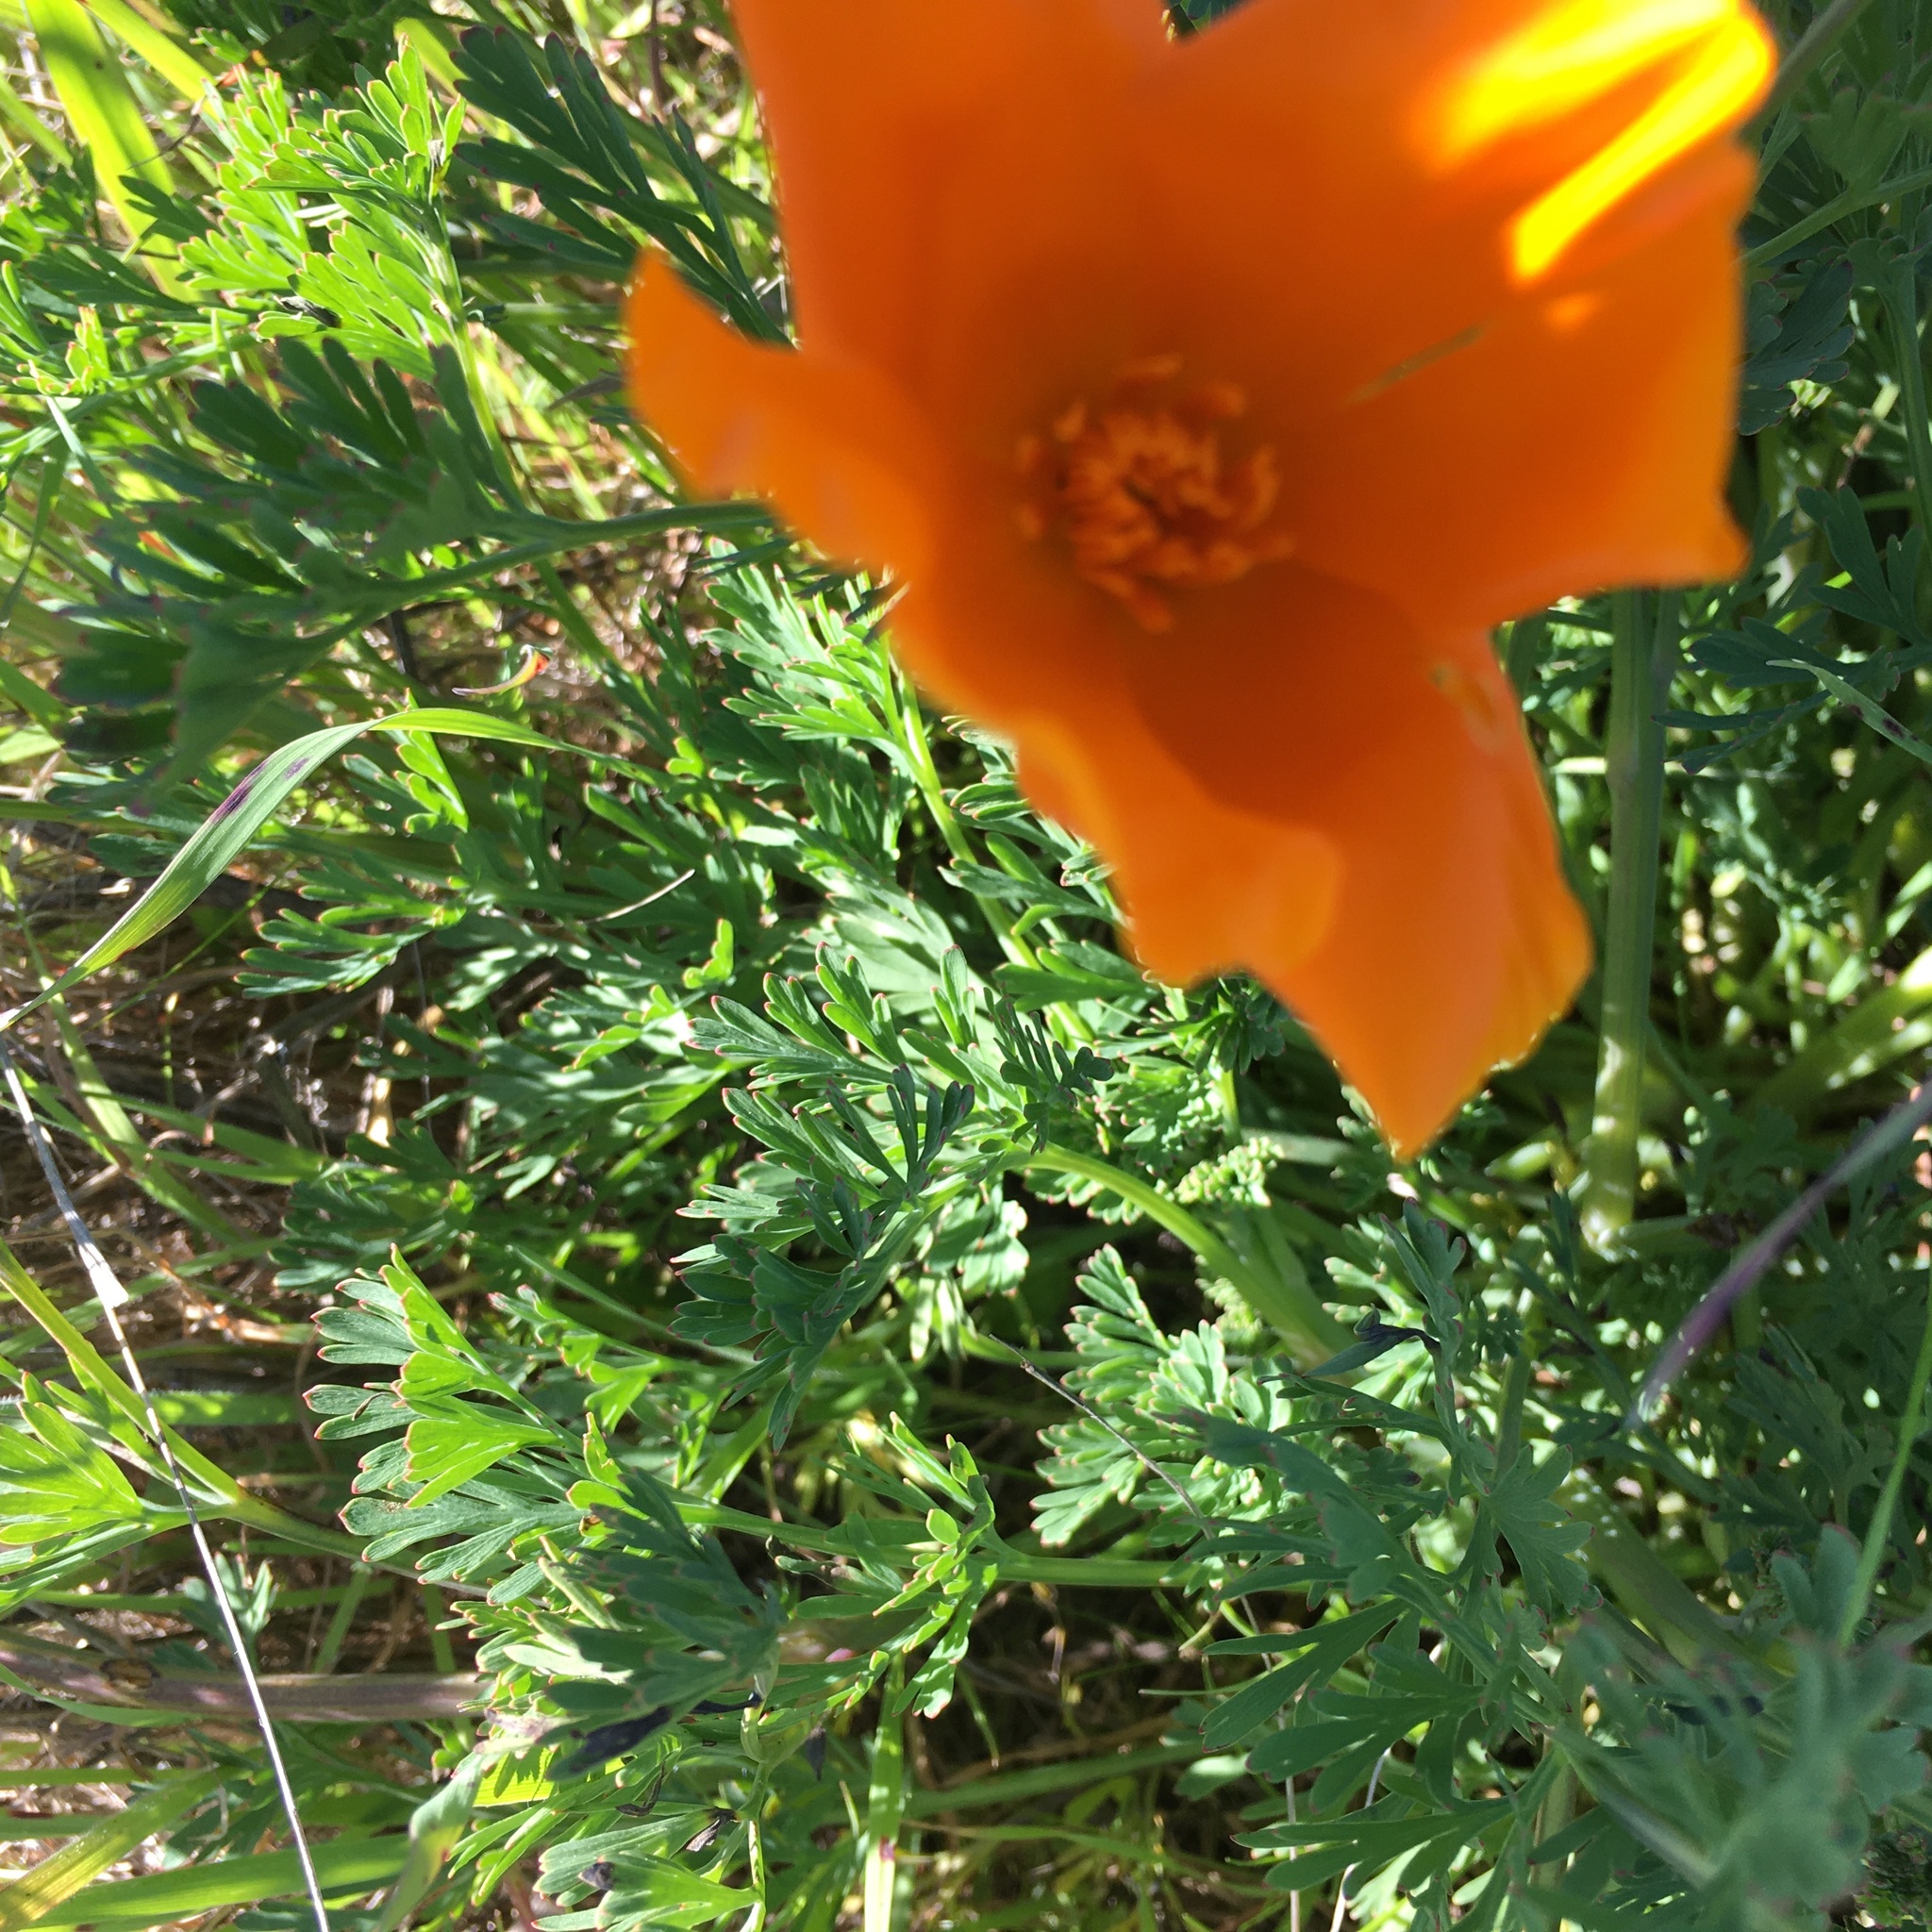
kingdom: Plantae
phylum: Tracheophyta
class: Magnoliopsida
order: Ranunculales
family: Papaveraceae
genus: Eschscholzia
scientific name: Eschscholzia californica
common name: California poppy
